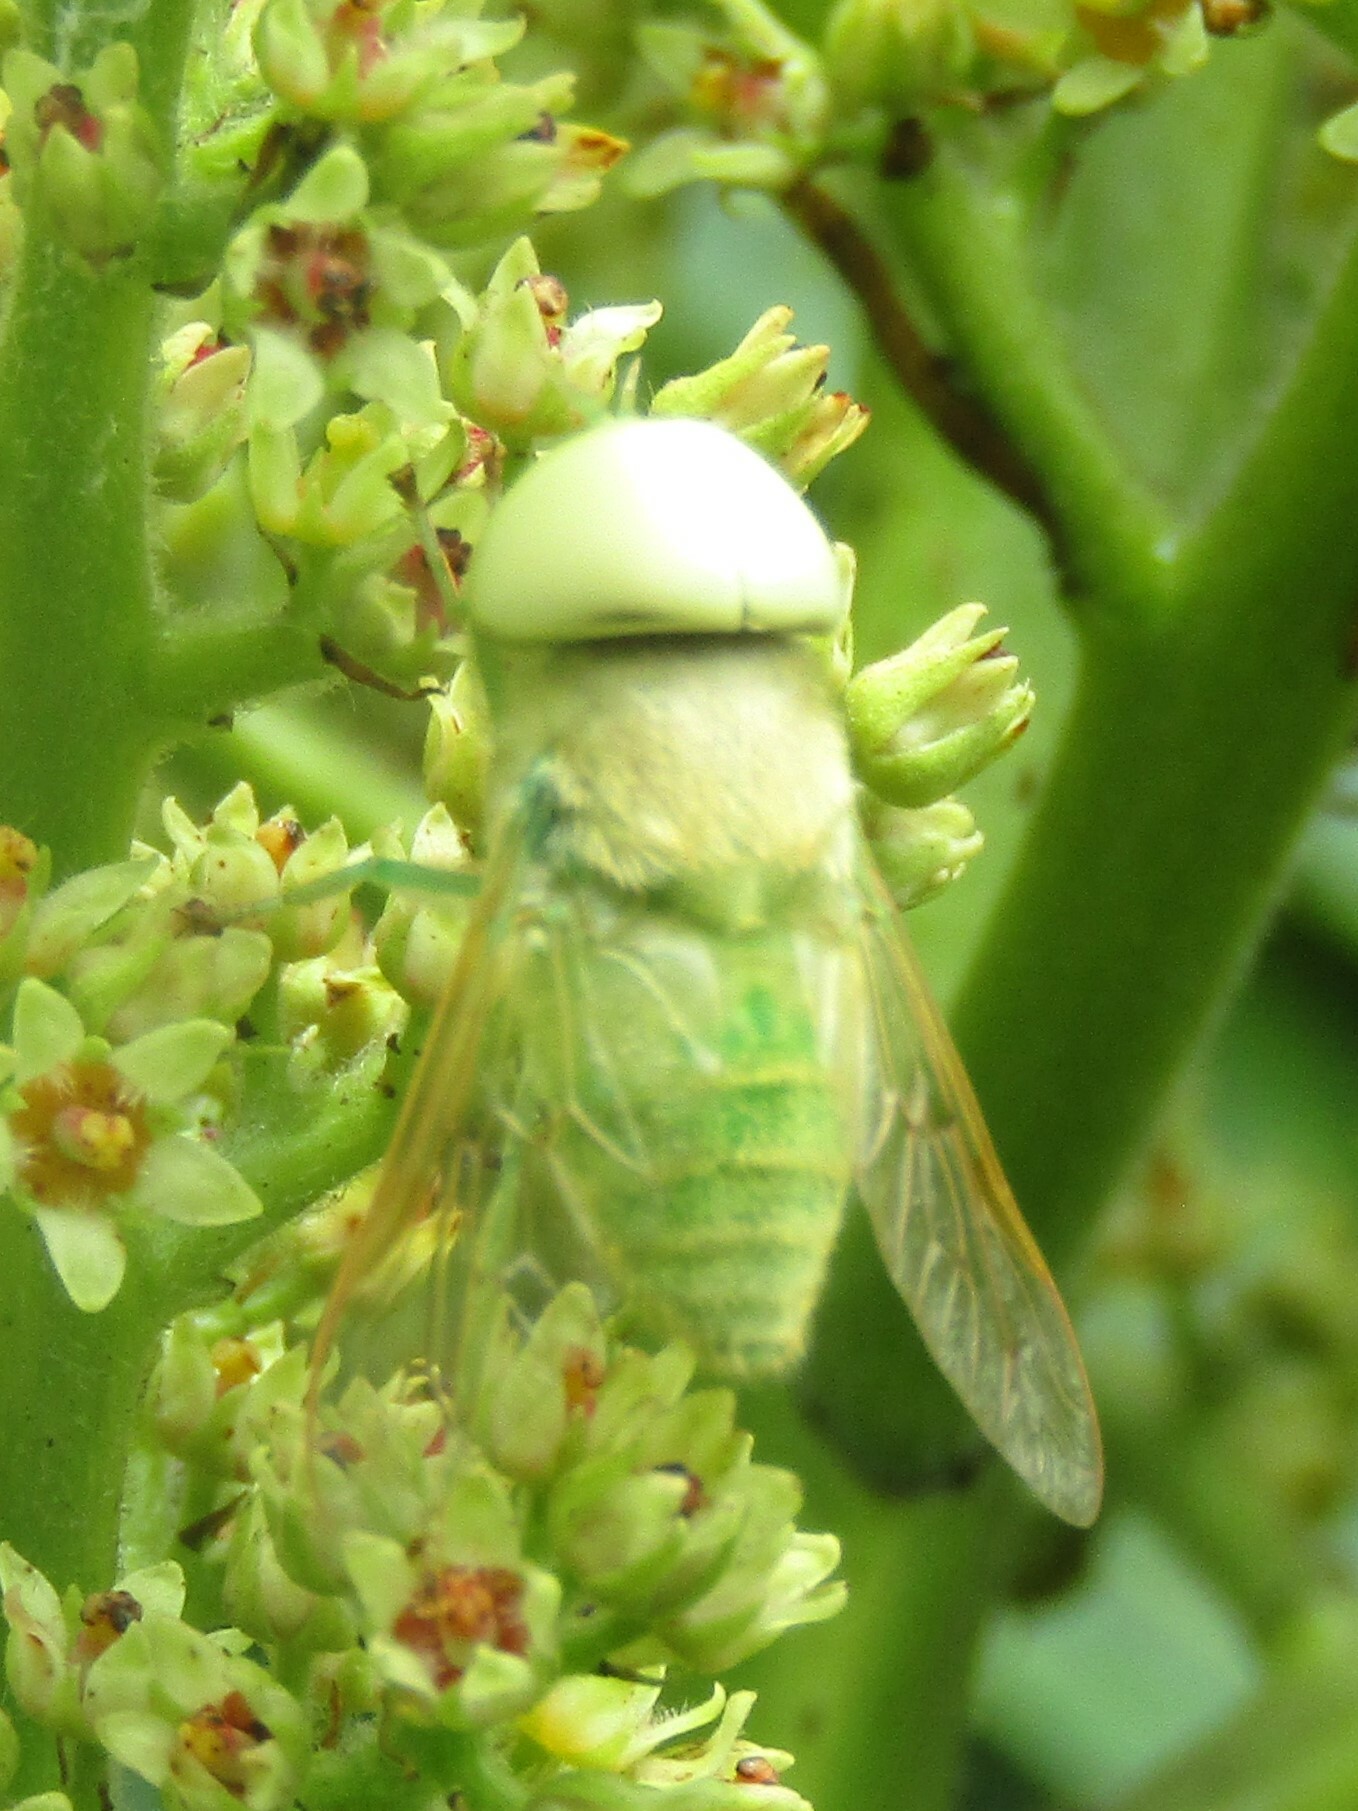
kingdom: Animalia
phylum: Arthropoda
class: Insecta
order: Diptera
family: Tabanidae
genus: Chlorotabanus
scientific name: Chlorotabanus crepuscularis
